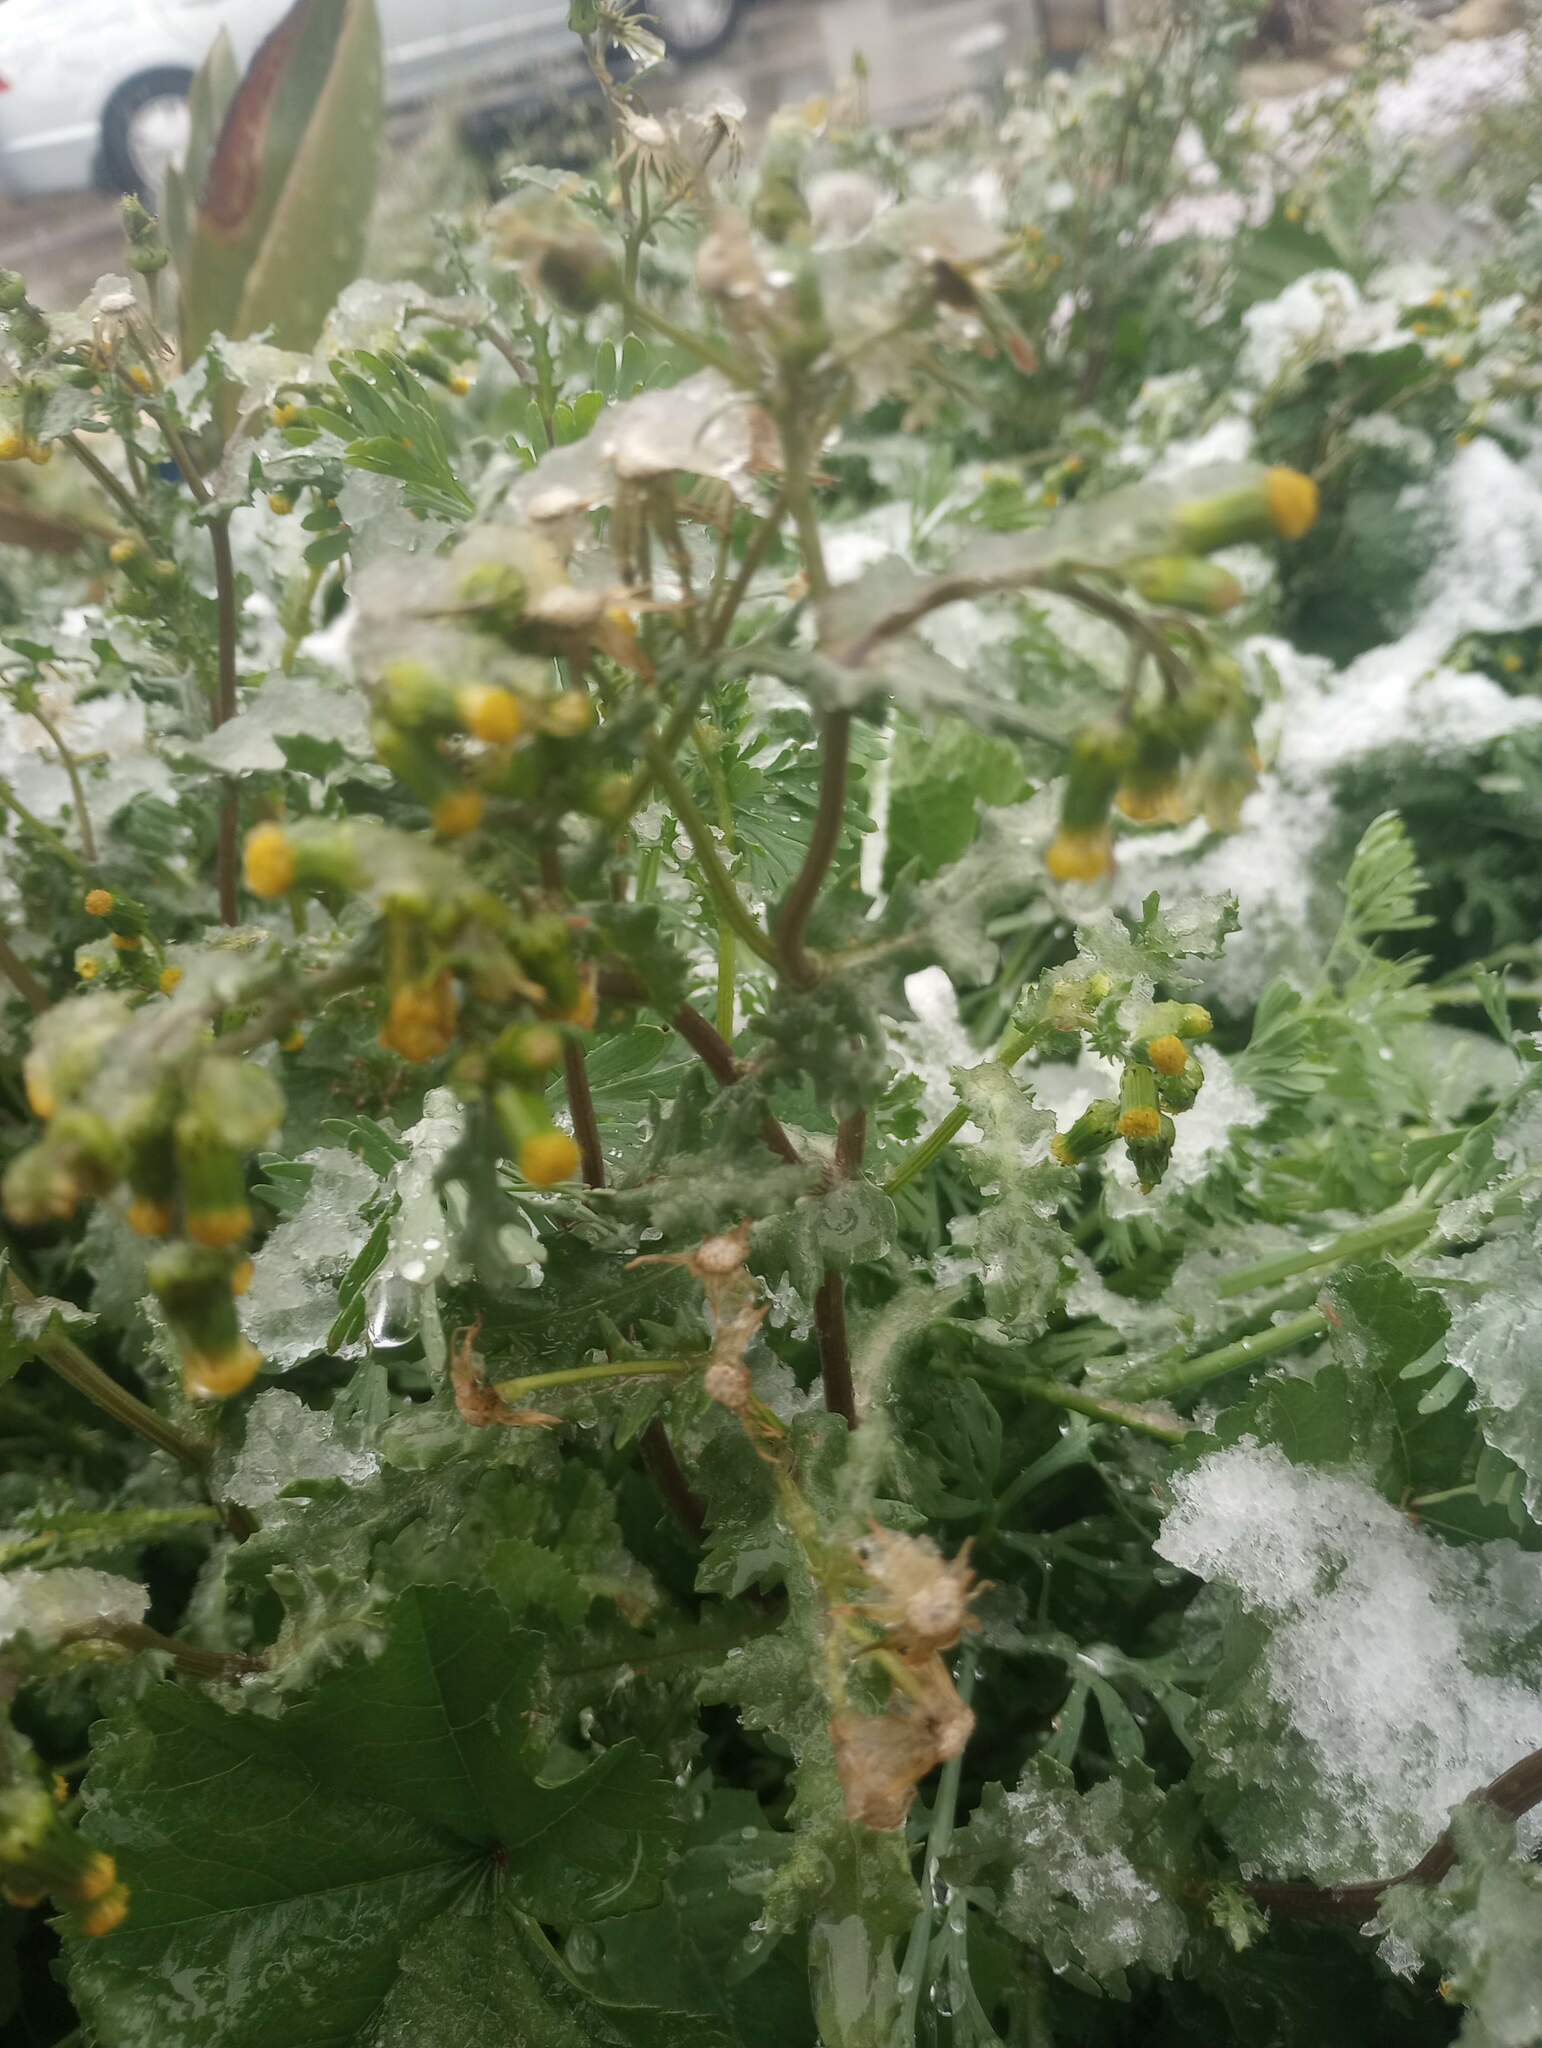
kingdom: Plantae
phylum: Tracheophyta
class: Magnoliopsida
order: Asterales
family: Asteraceae
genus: Senecio
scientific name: Senecio vulgaris
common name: Old-man-in-the-spring
